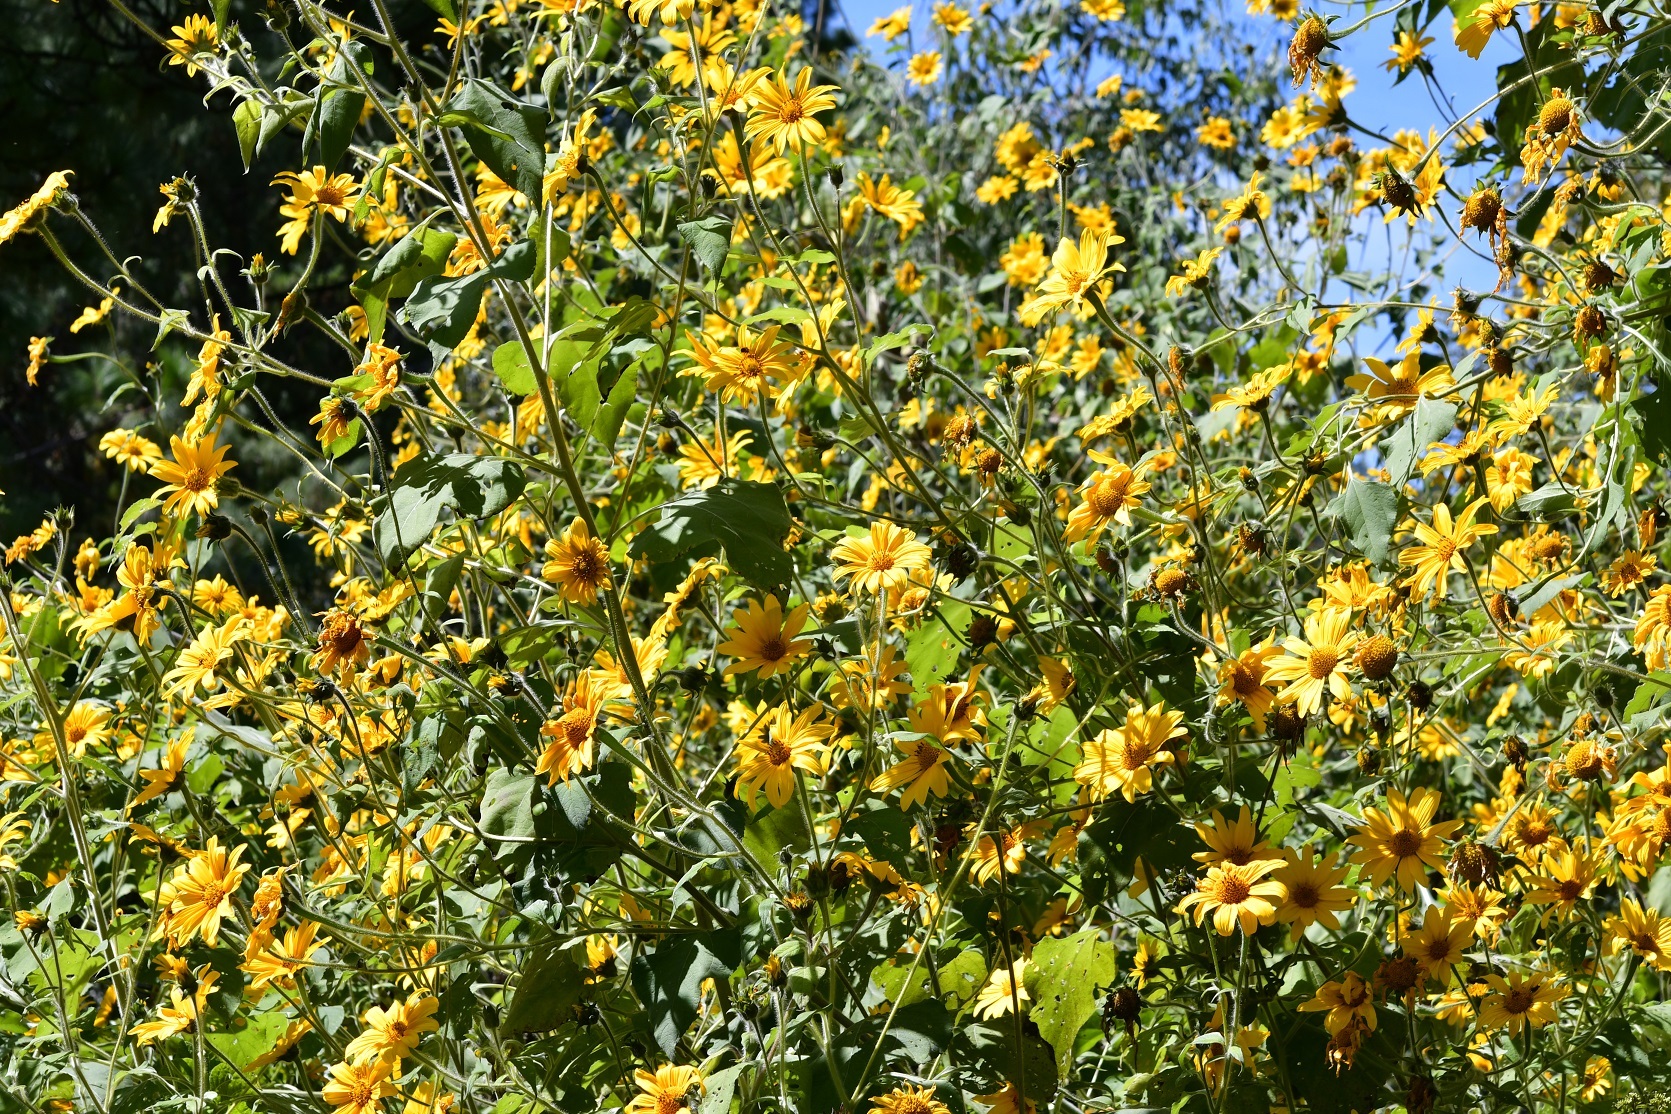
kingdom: Plantae
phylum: Tracheophyta
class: Magnoliopsida
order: Asterales
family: Asteraceae
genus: Tithonia
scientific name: Tithonia tubaeformis
